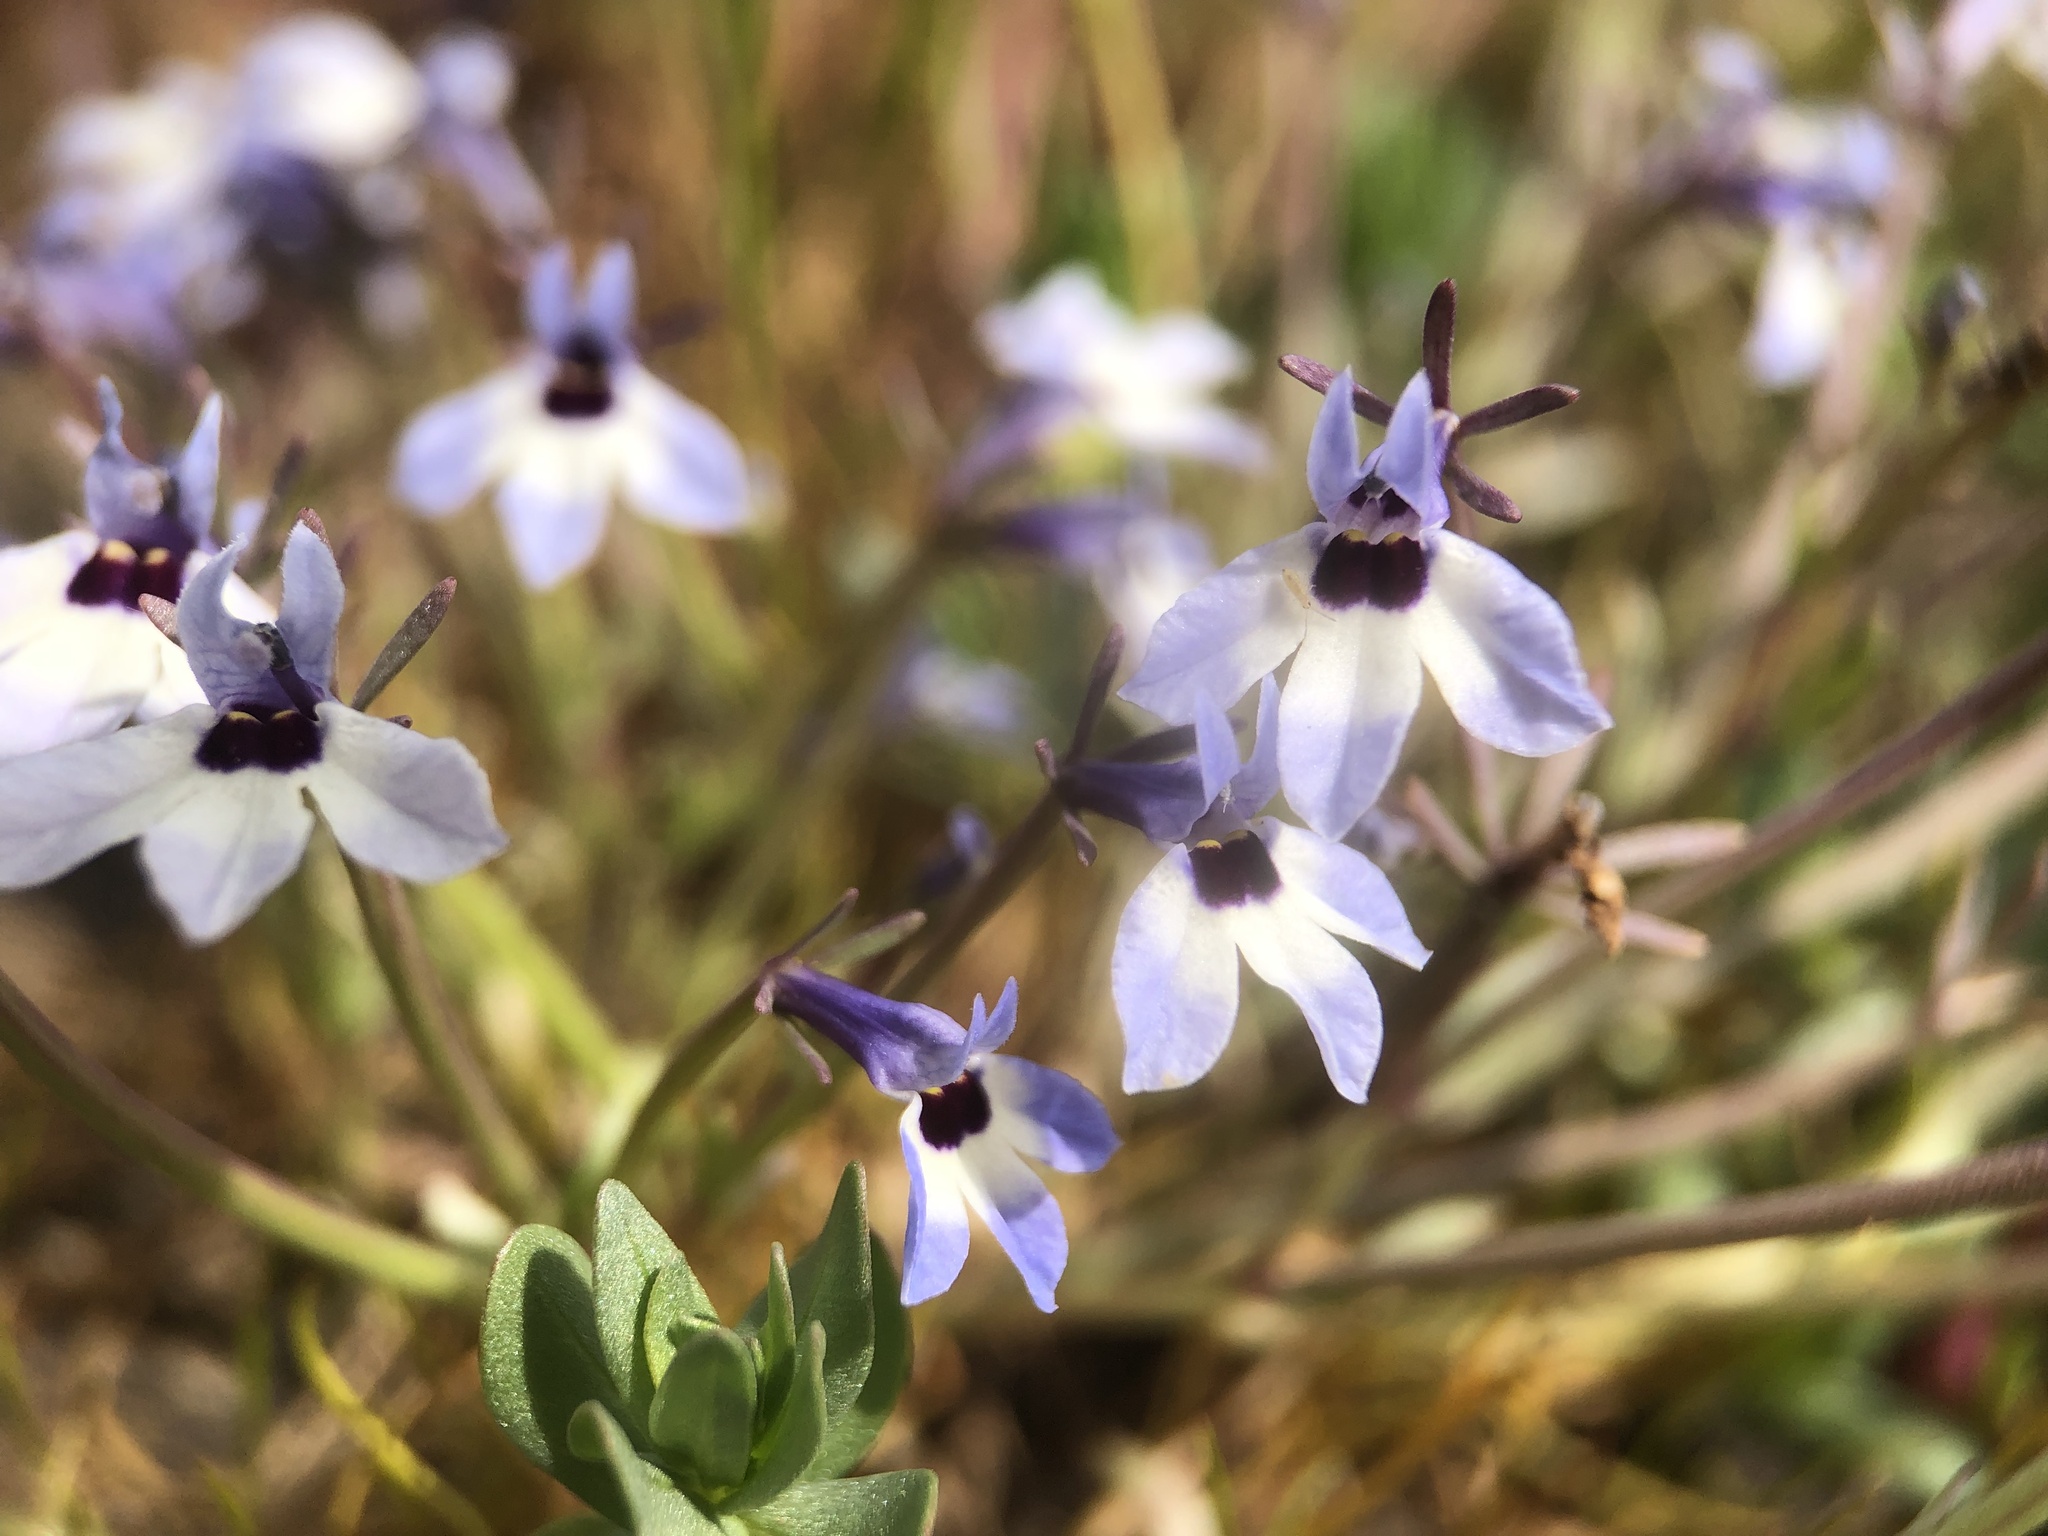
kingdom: Plantae
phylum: Tracheophyta
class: Magnoliopsida
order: Asterales
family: Campanulaceae
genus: Downingia
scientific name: Downingia concolor
